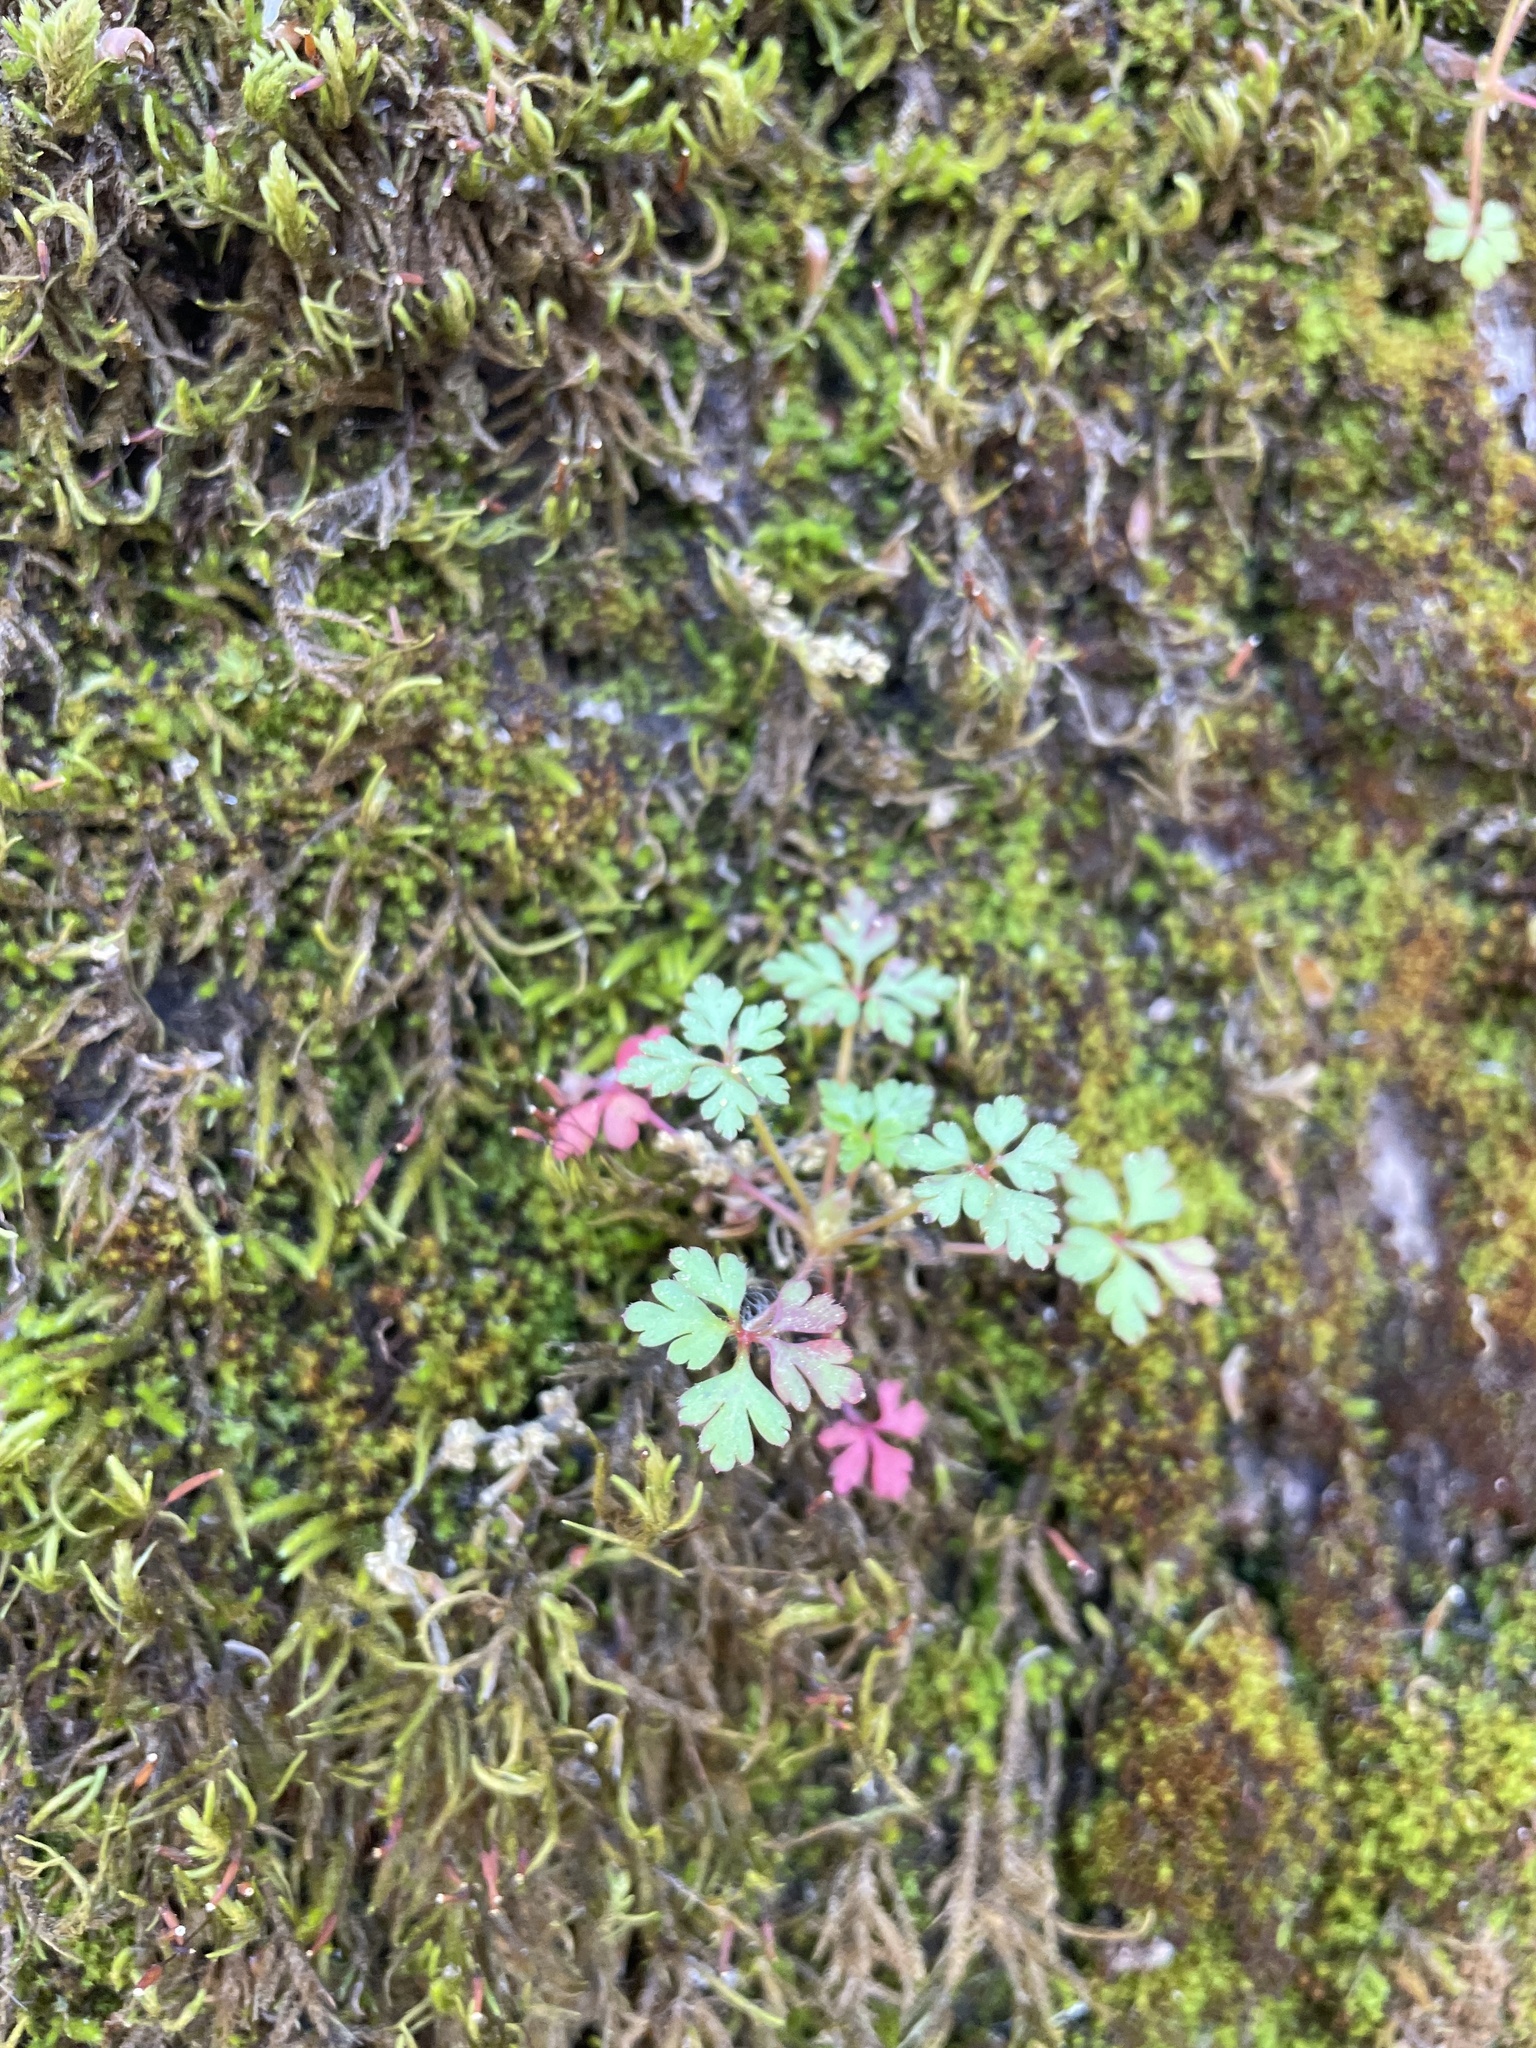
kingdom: Plantae
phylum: Tracheophyta
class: Magnoliopsida
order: Geraniales
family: Geraniaceae
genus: Geranium
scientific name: Geranium
